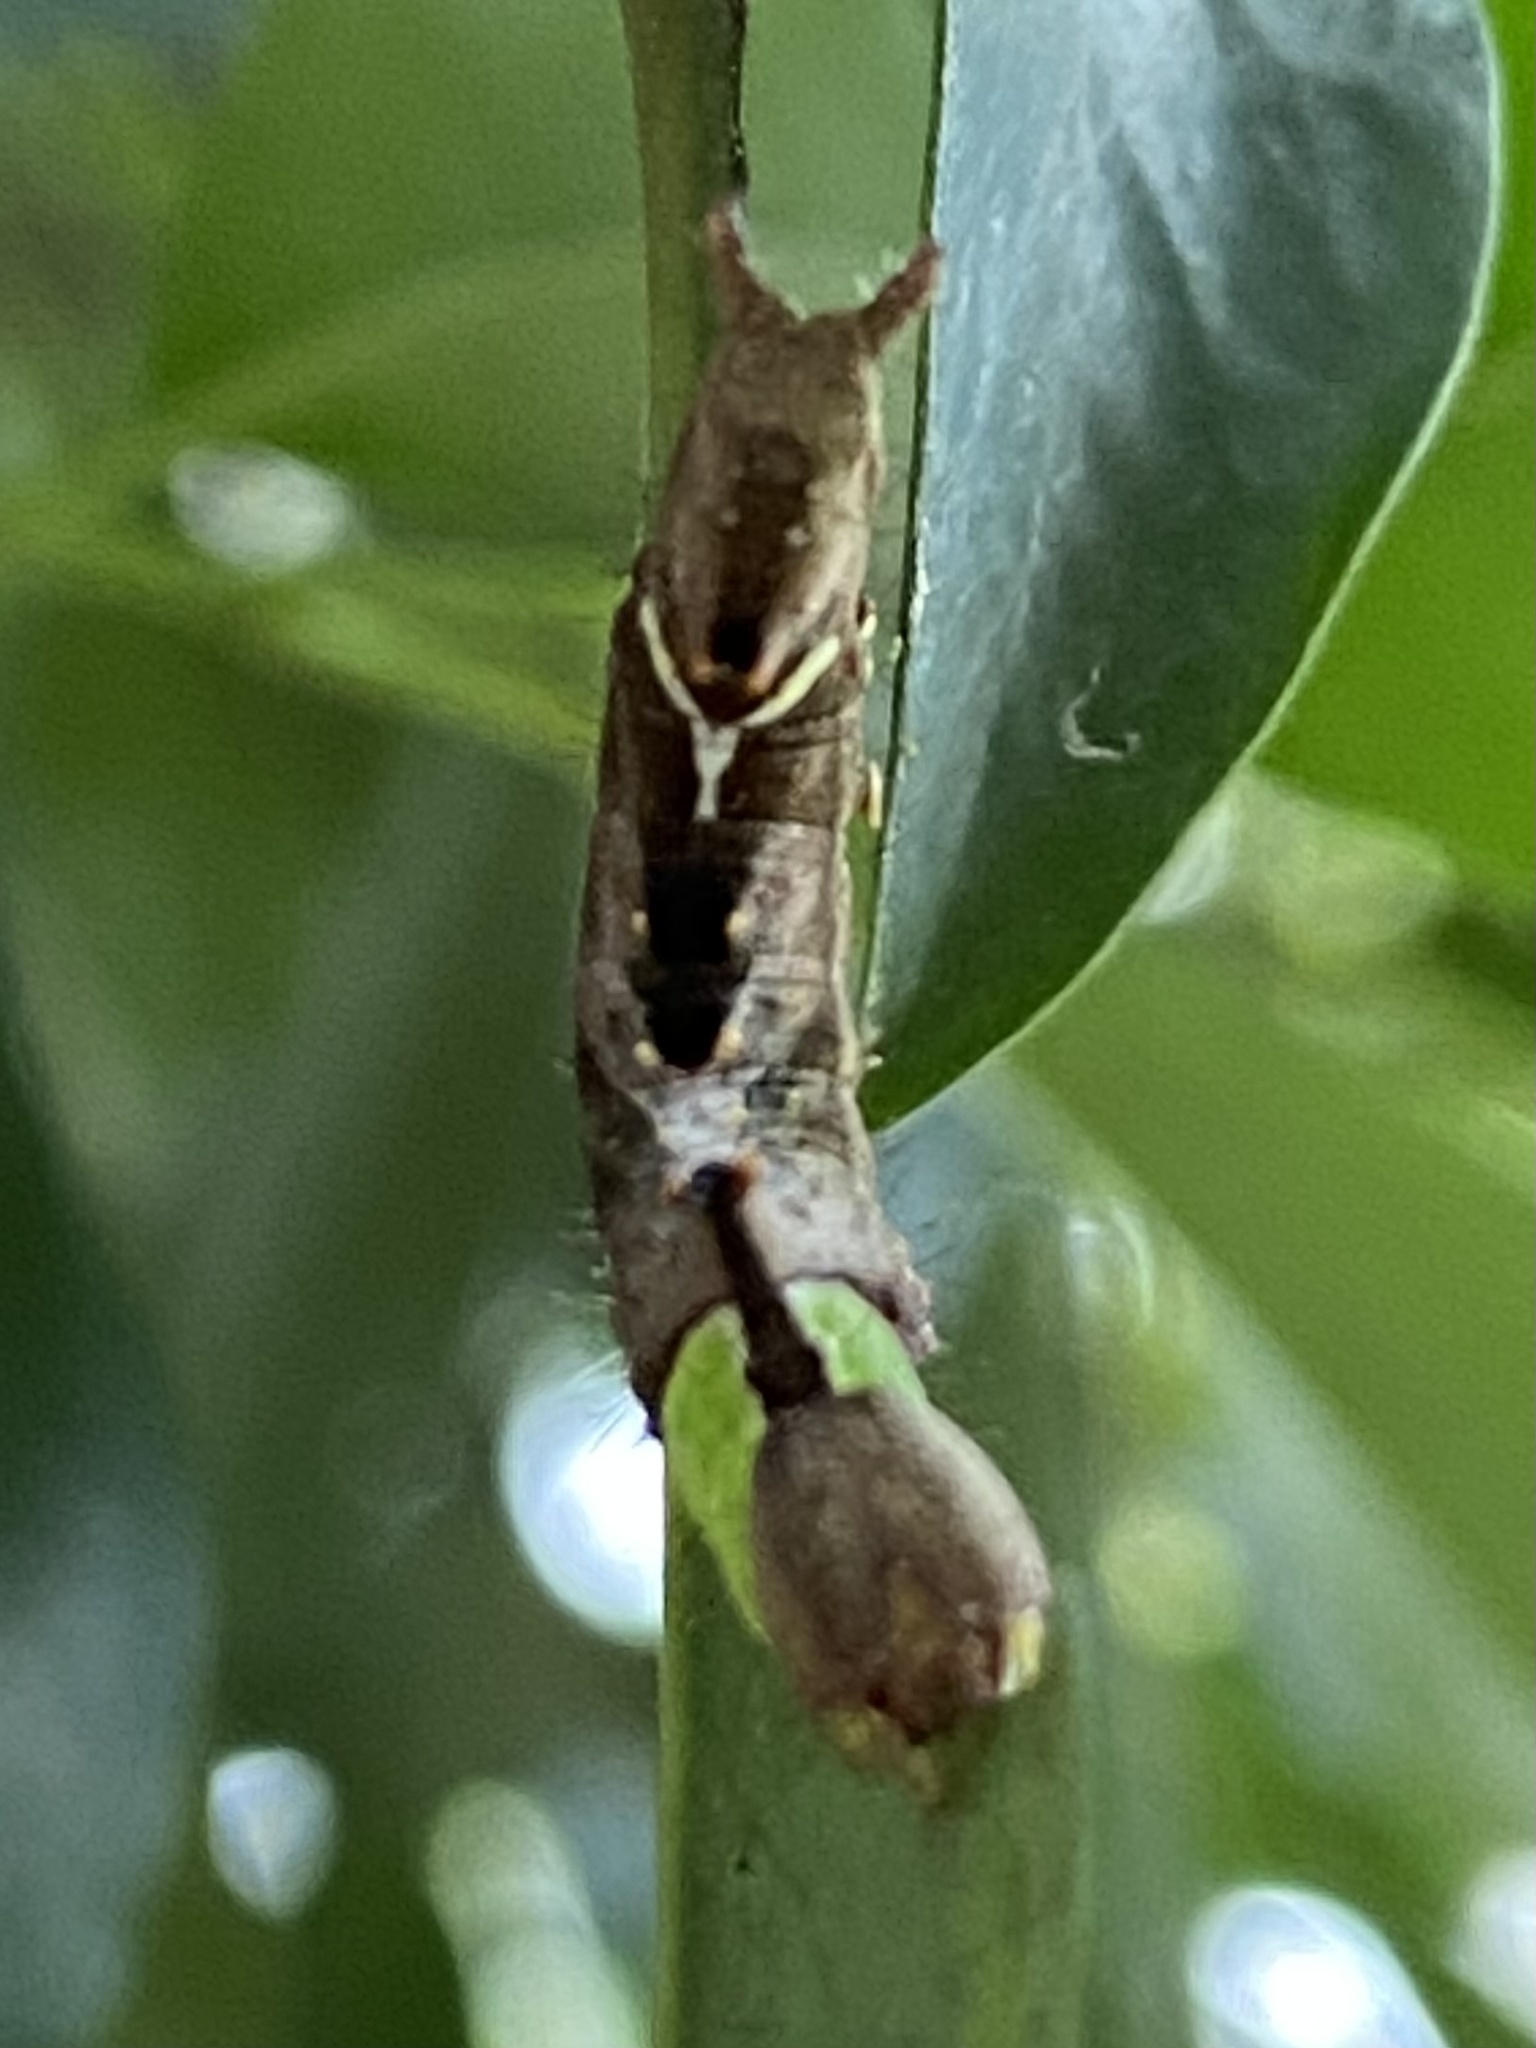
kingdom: Animalia
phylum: Arthropoda
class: Insecta
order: Lepidoptera
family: Notodontidae
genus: Schizura
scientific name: Schizura
